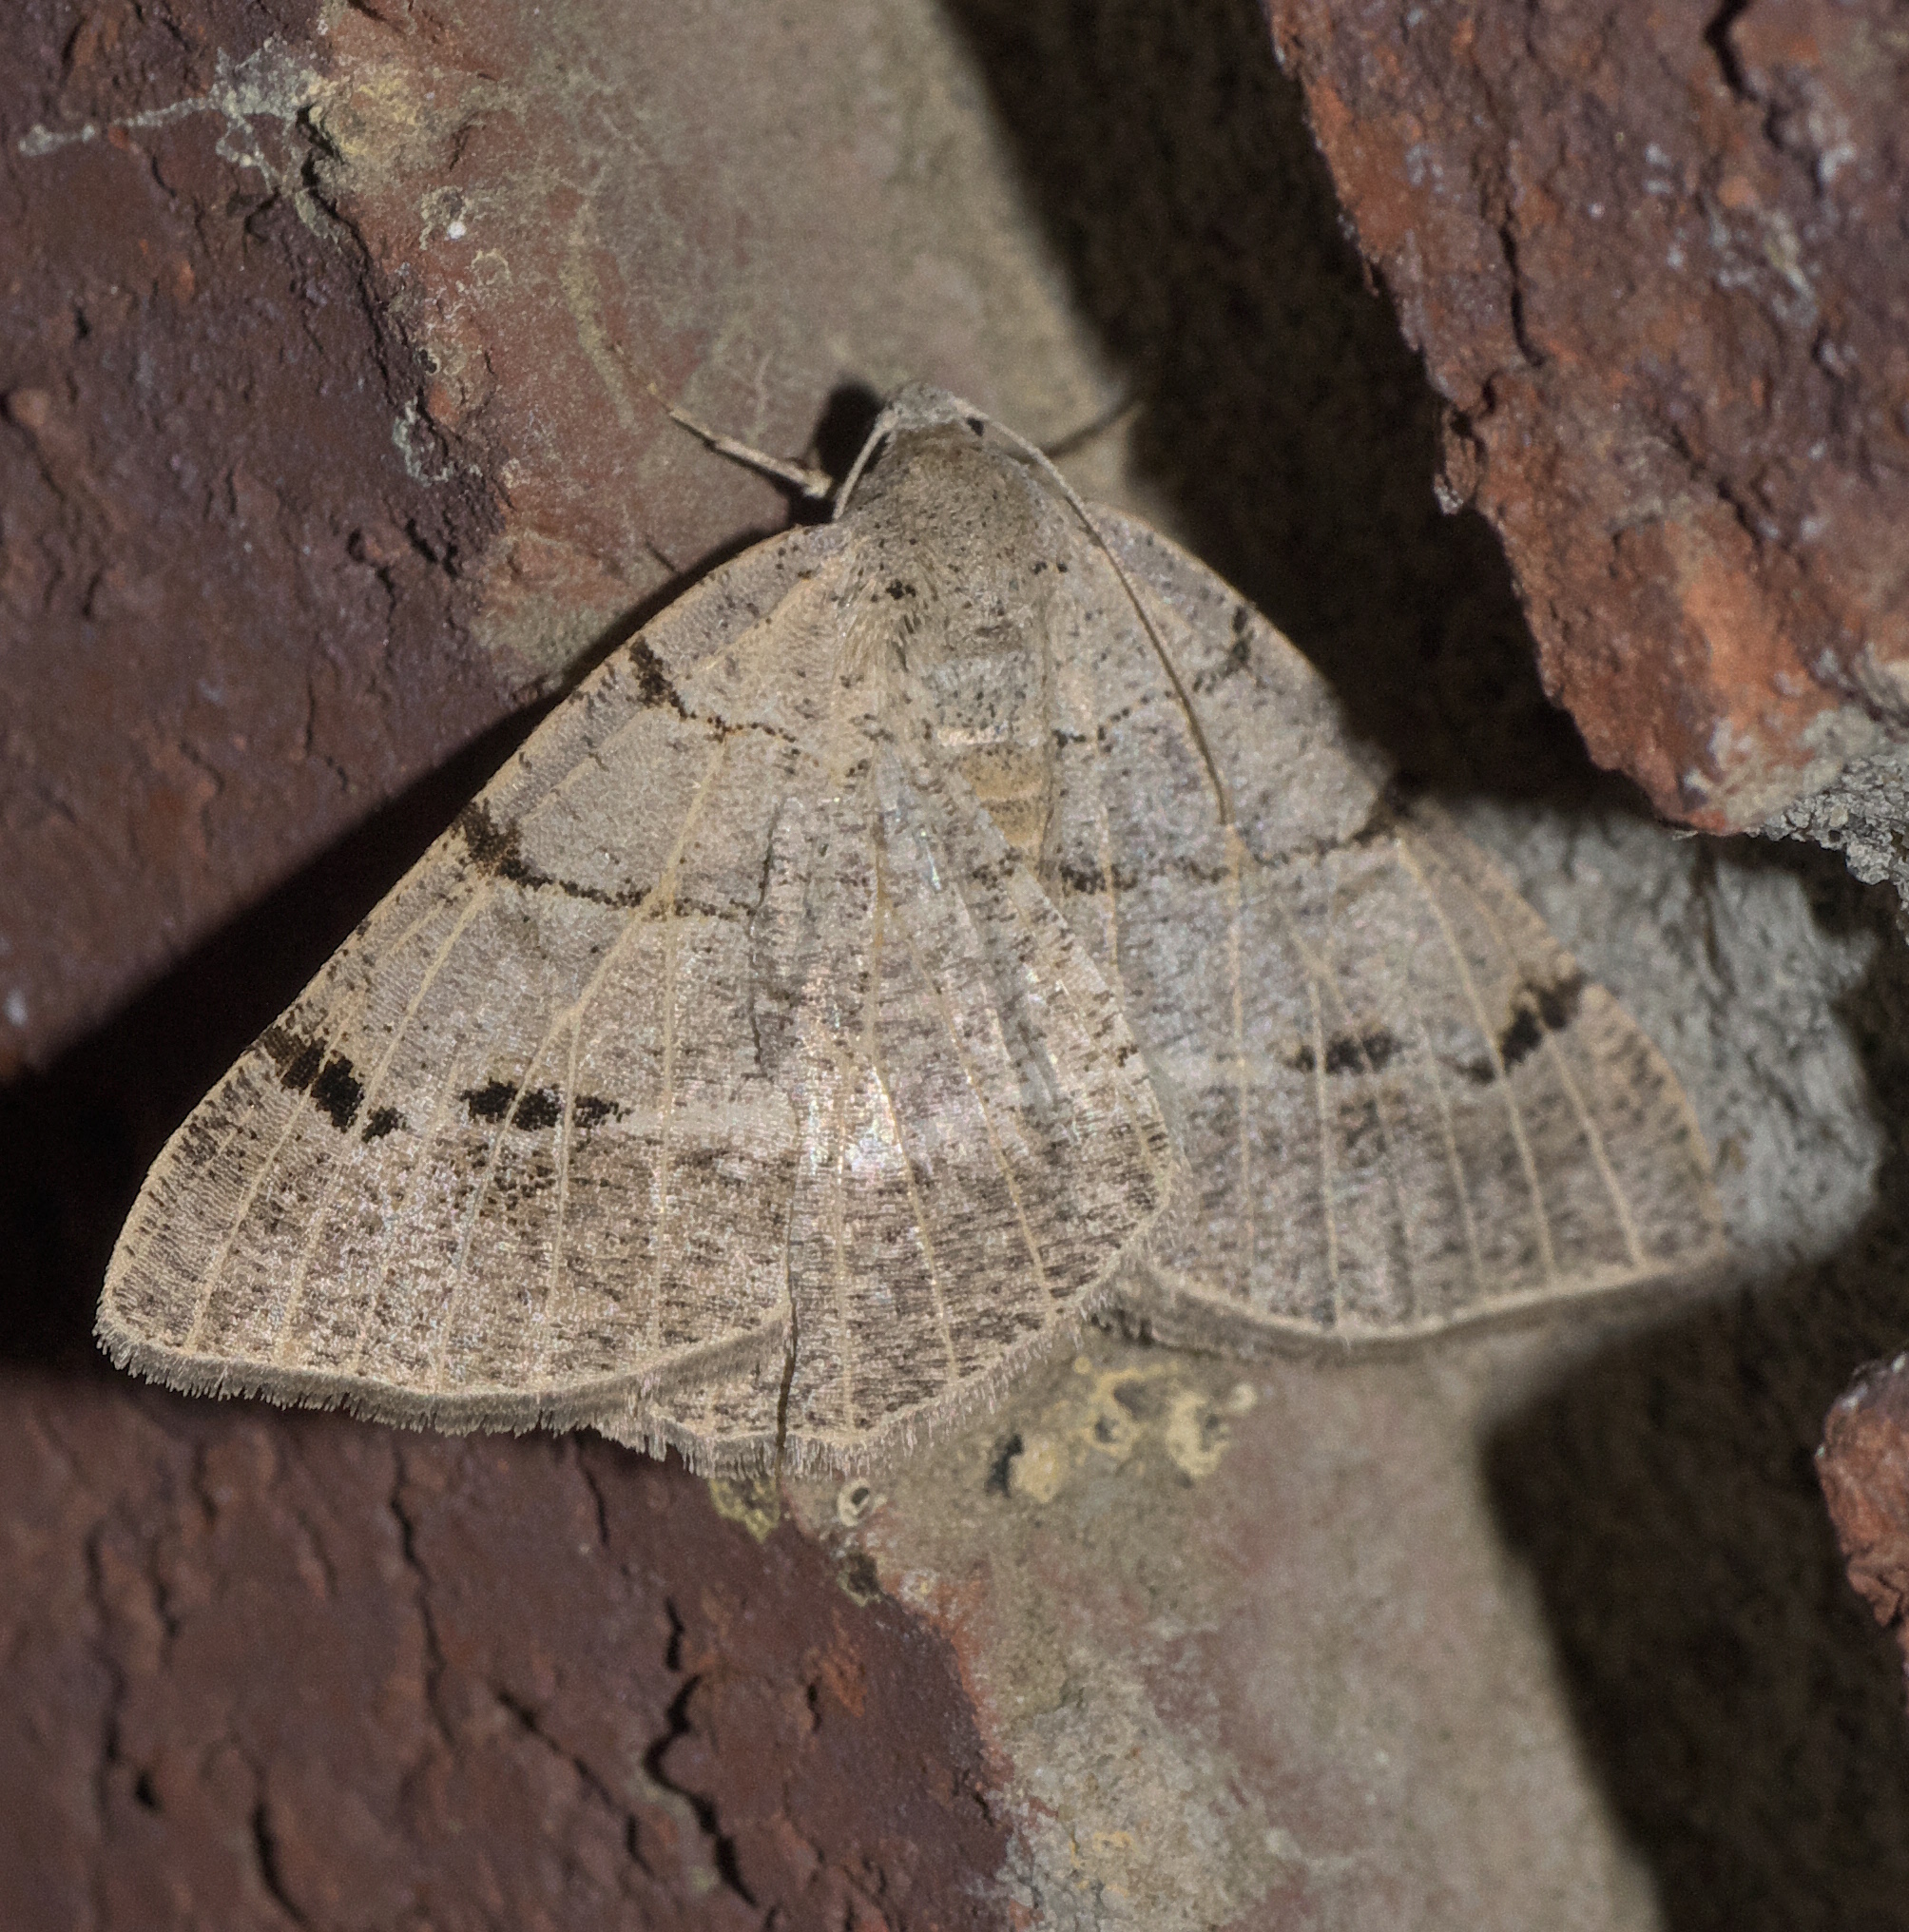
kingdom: Animalia
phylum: Arthropoda
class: Insecta
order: Lepidoptera
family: Geometridae
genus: Isturgia
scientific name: Isturgia dislocaria
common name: Pale-viened enconista
